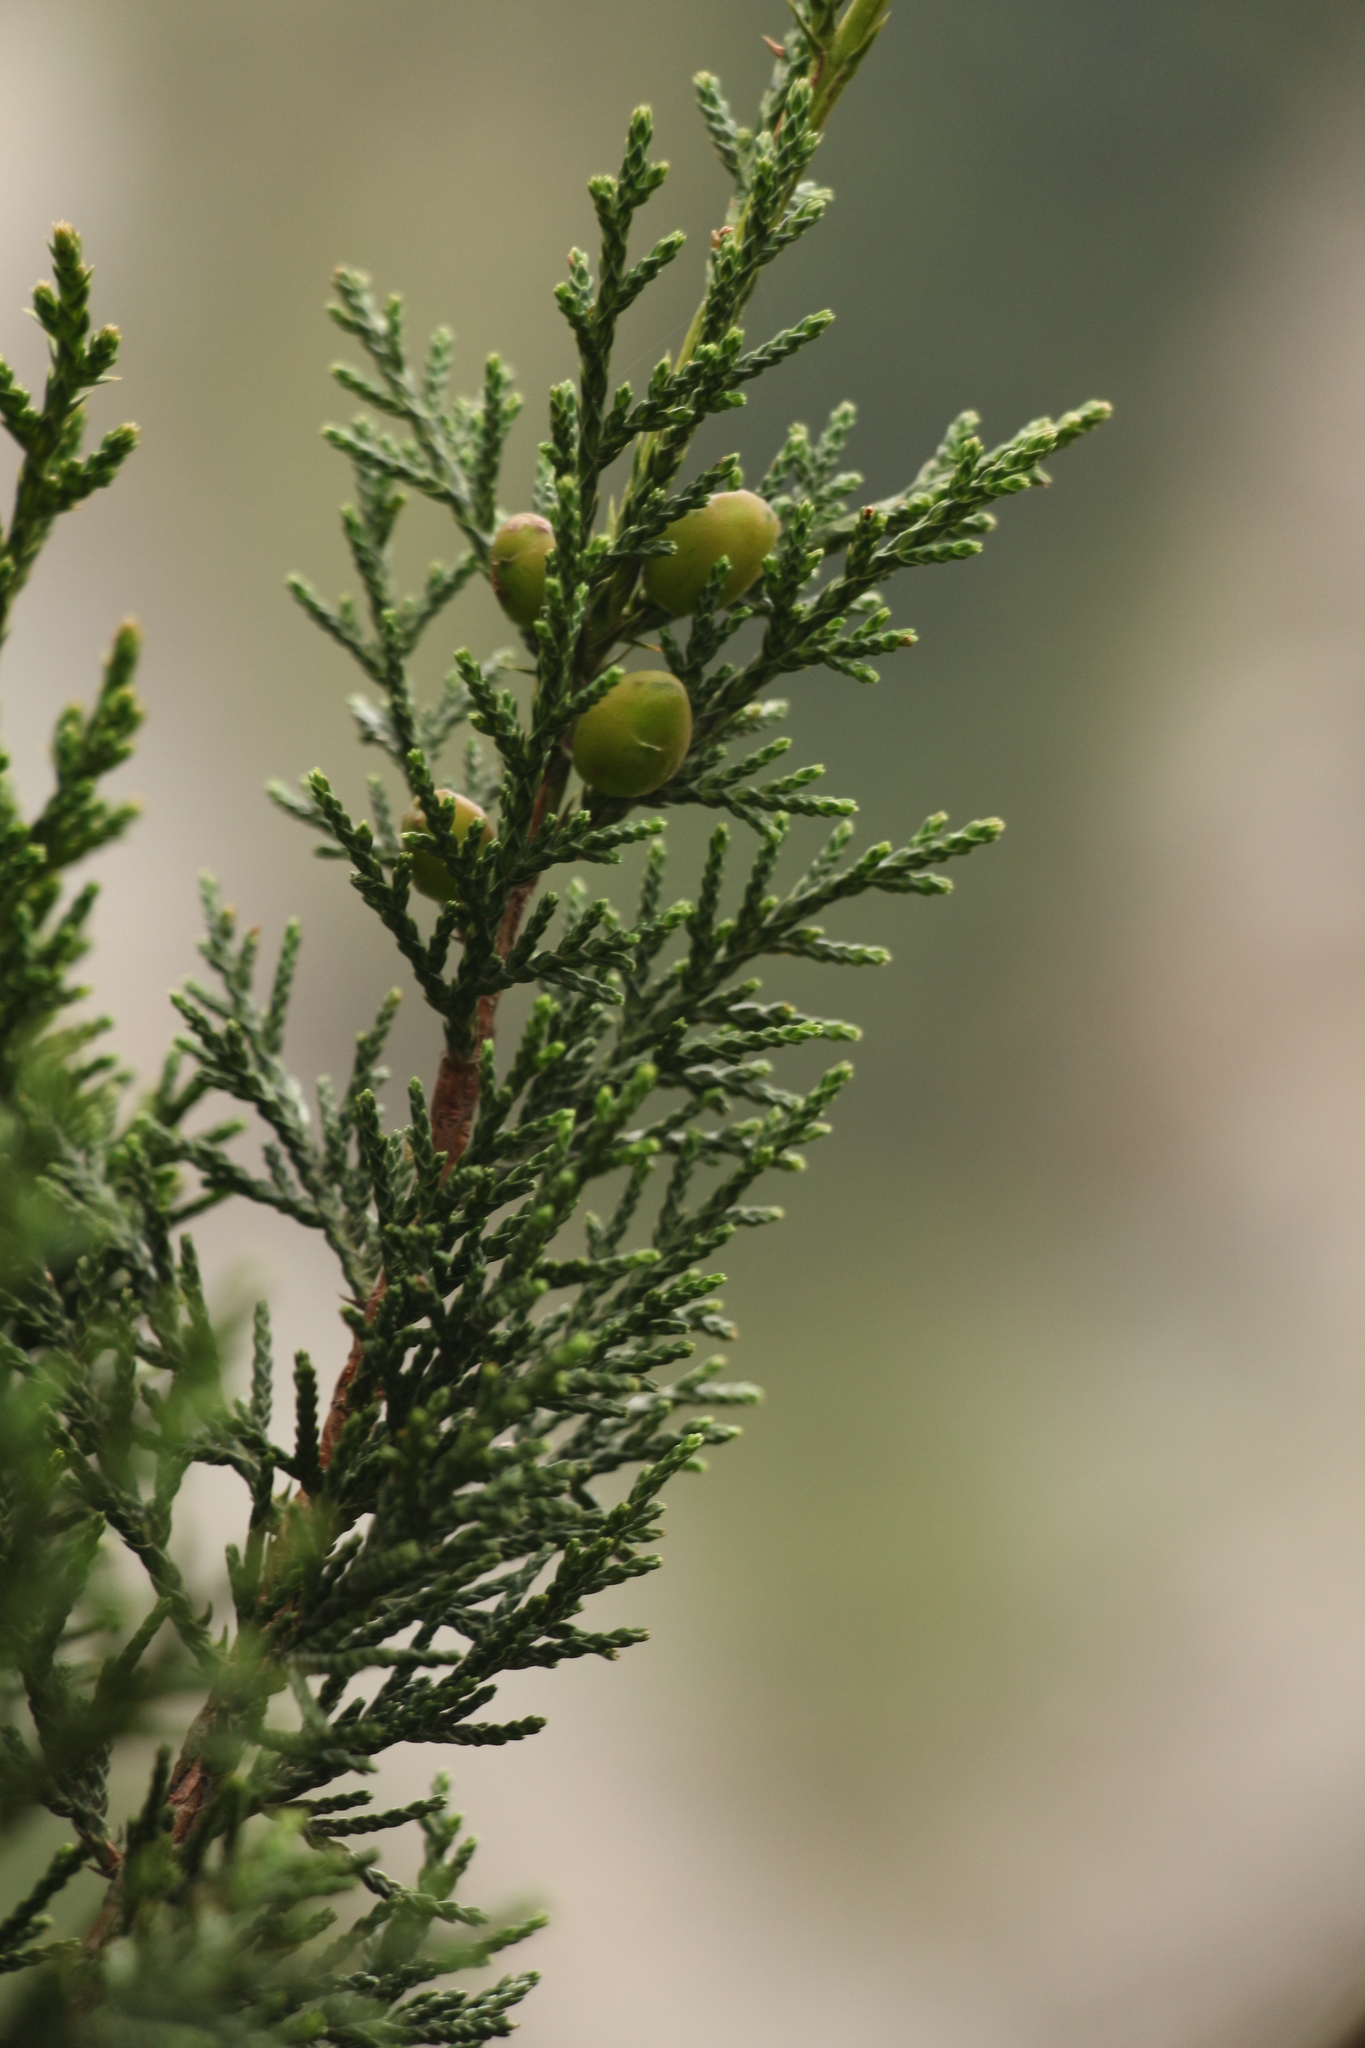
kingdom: Plantae
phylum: Tracheophyta
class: Pinopsida
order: Pinales
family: Cupressaceae
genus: Juniperus
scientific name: Juniperus indica
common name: Black juniper
